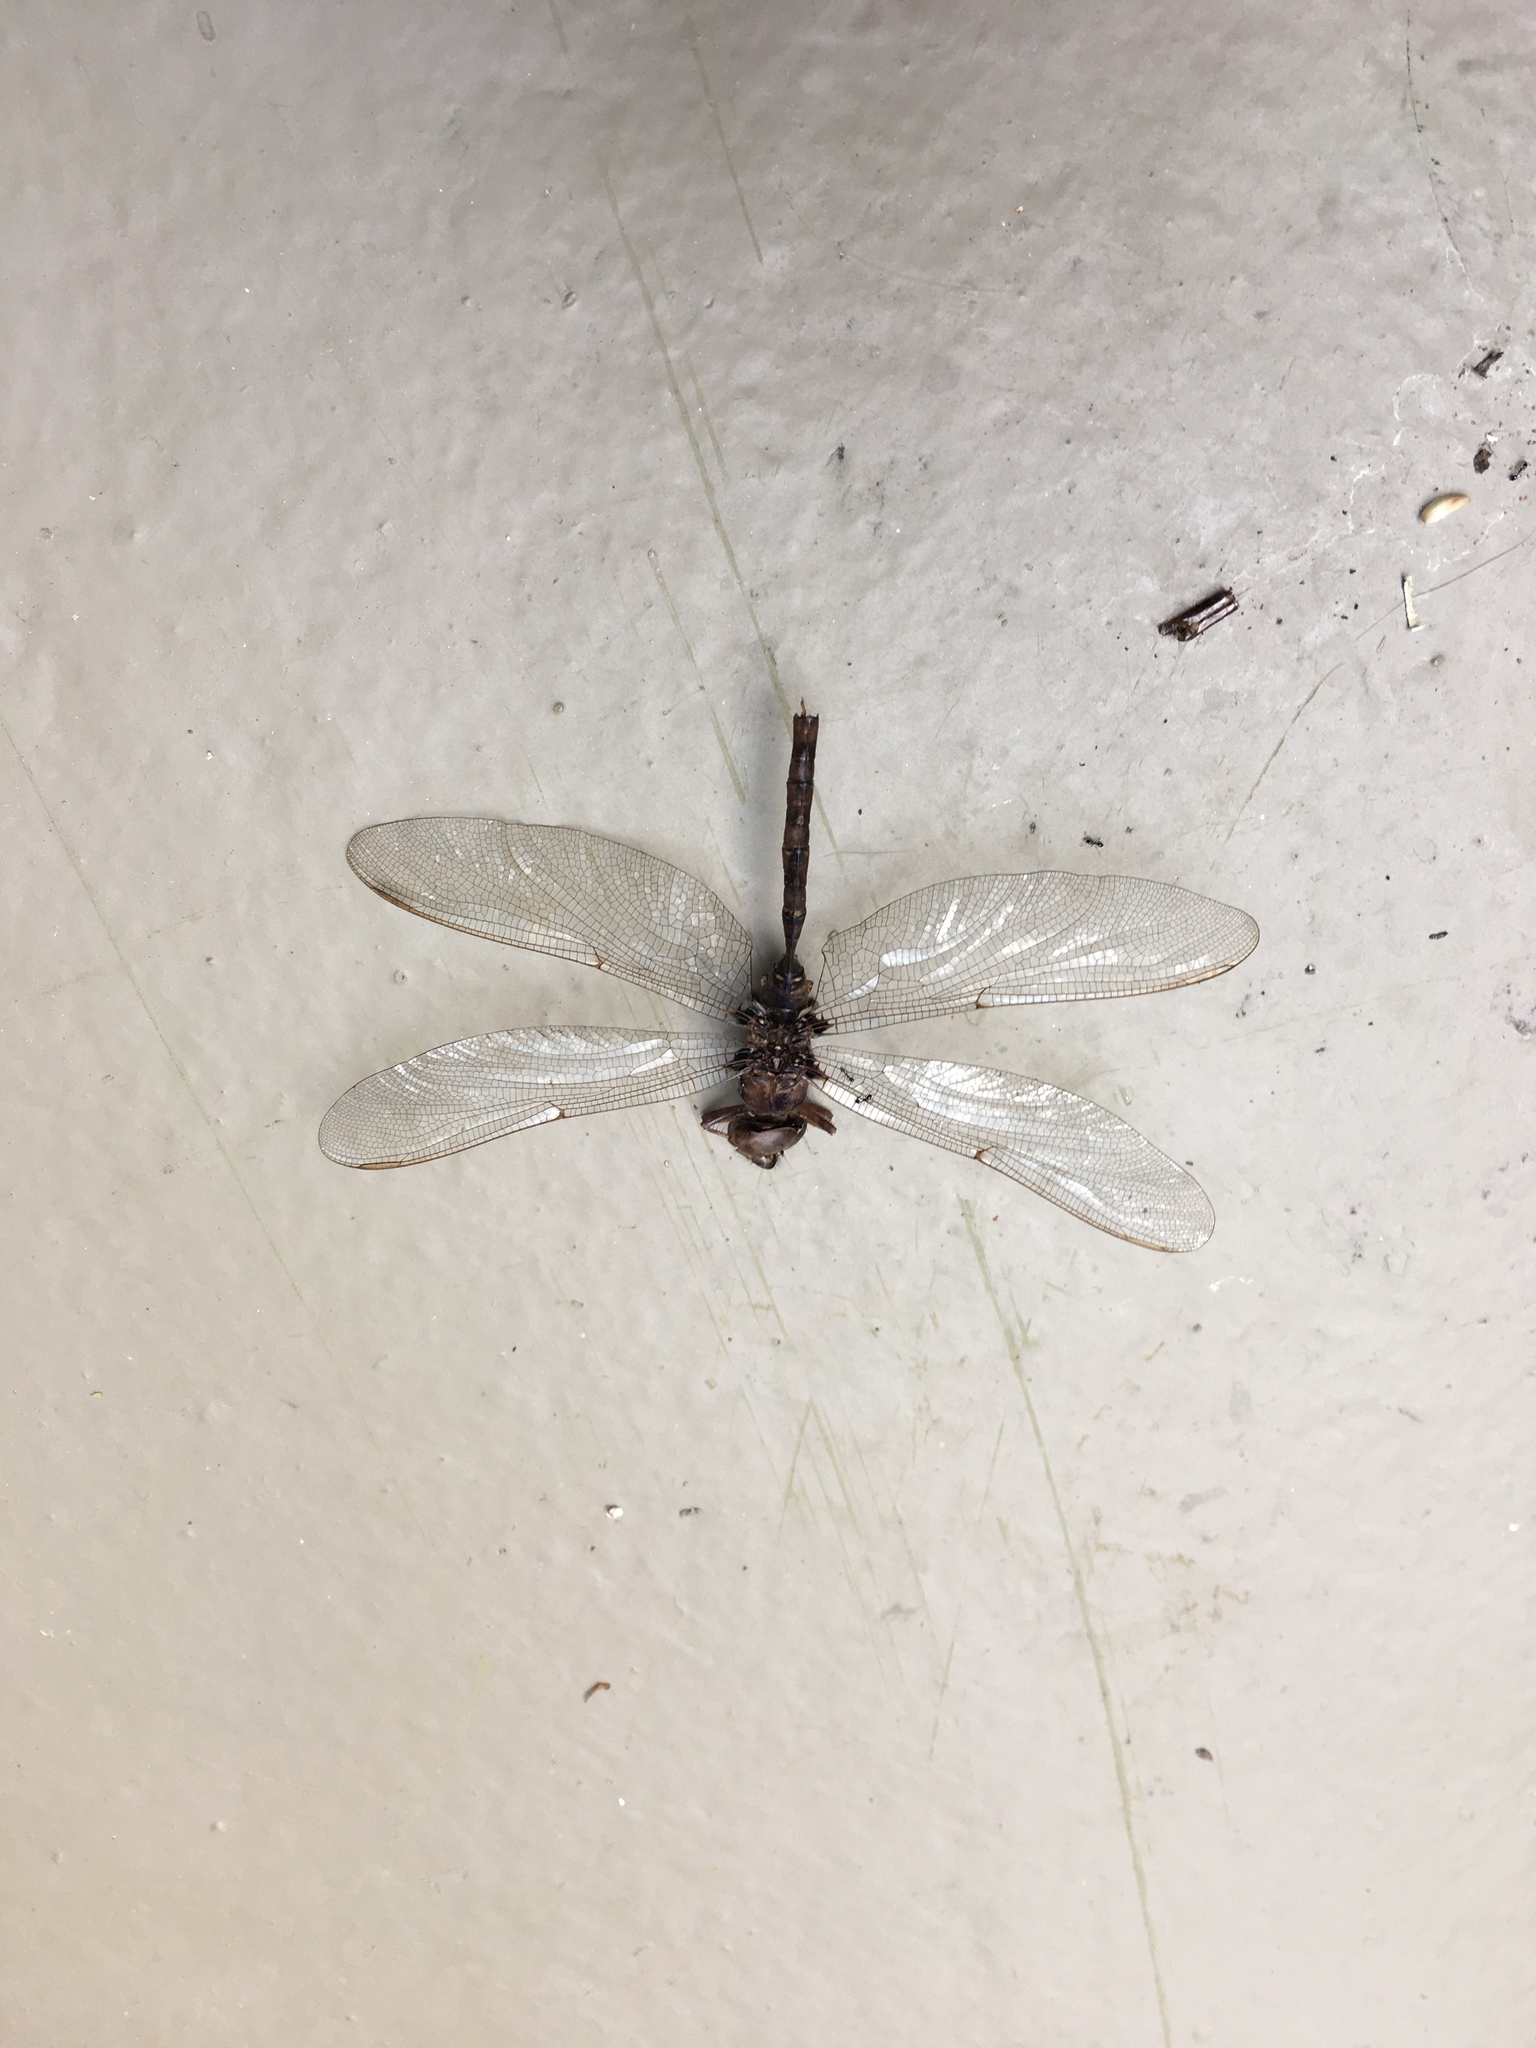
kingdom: Animalia
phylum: Arthropoda
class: Insecta
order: Odonata
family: Aeshnidae
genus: Boyeria
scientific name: Boyeria vinosa
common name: Fawn darner
